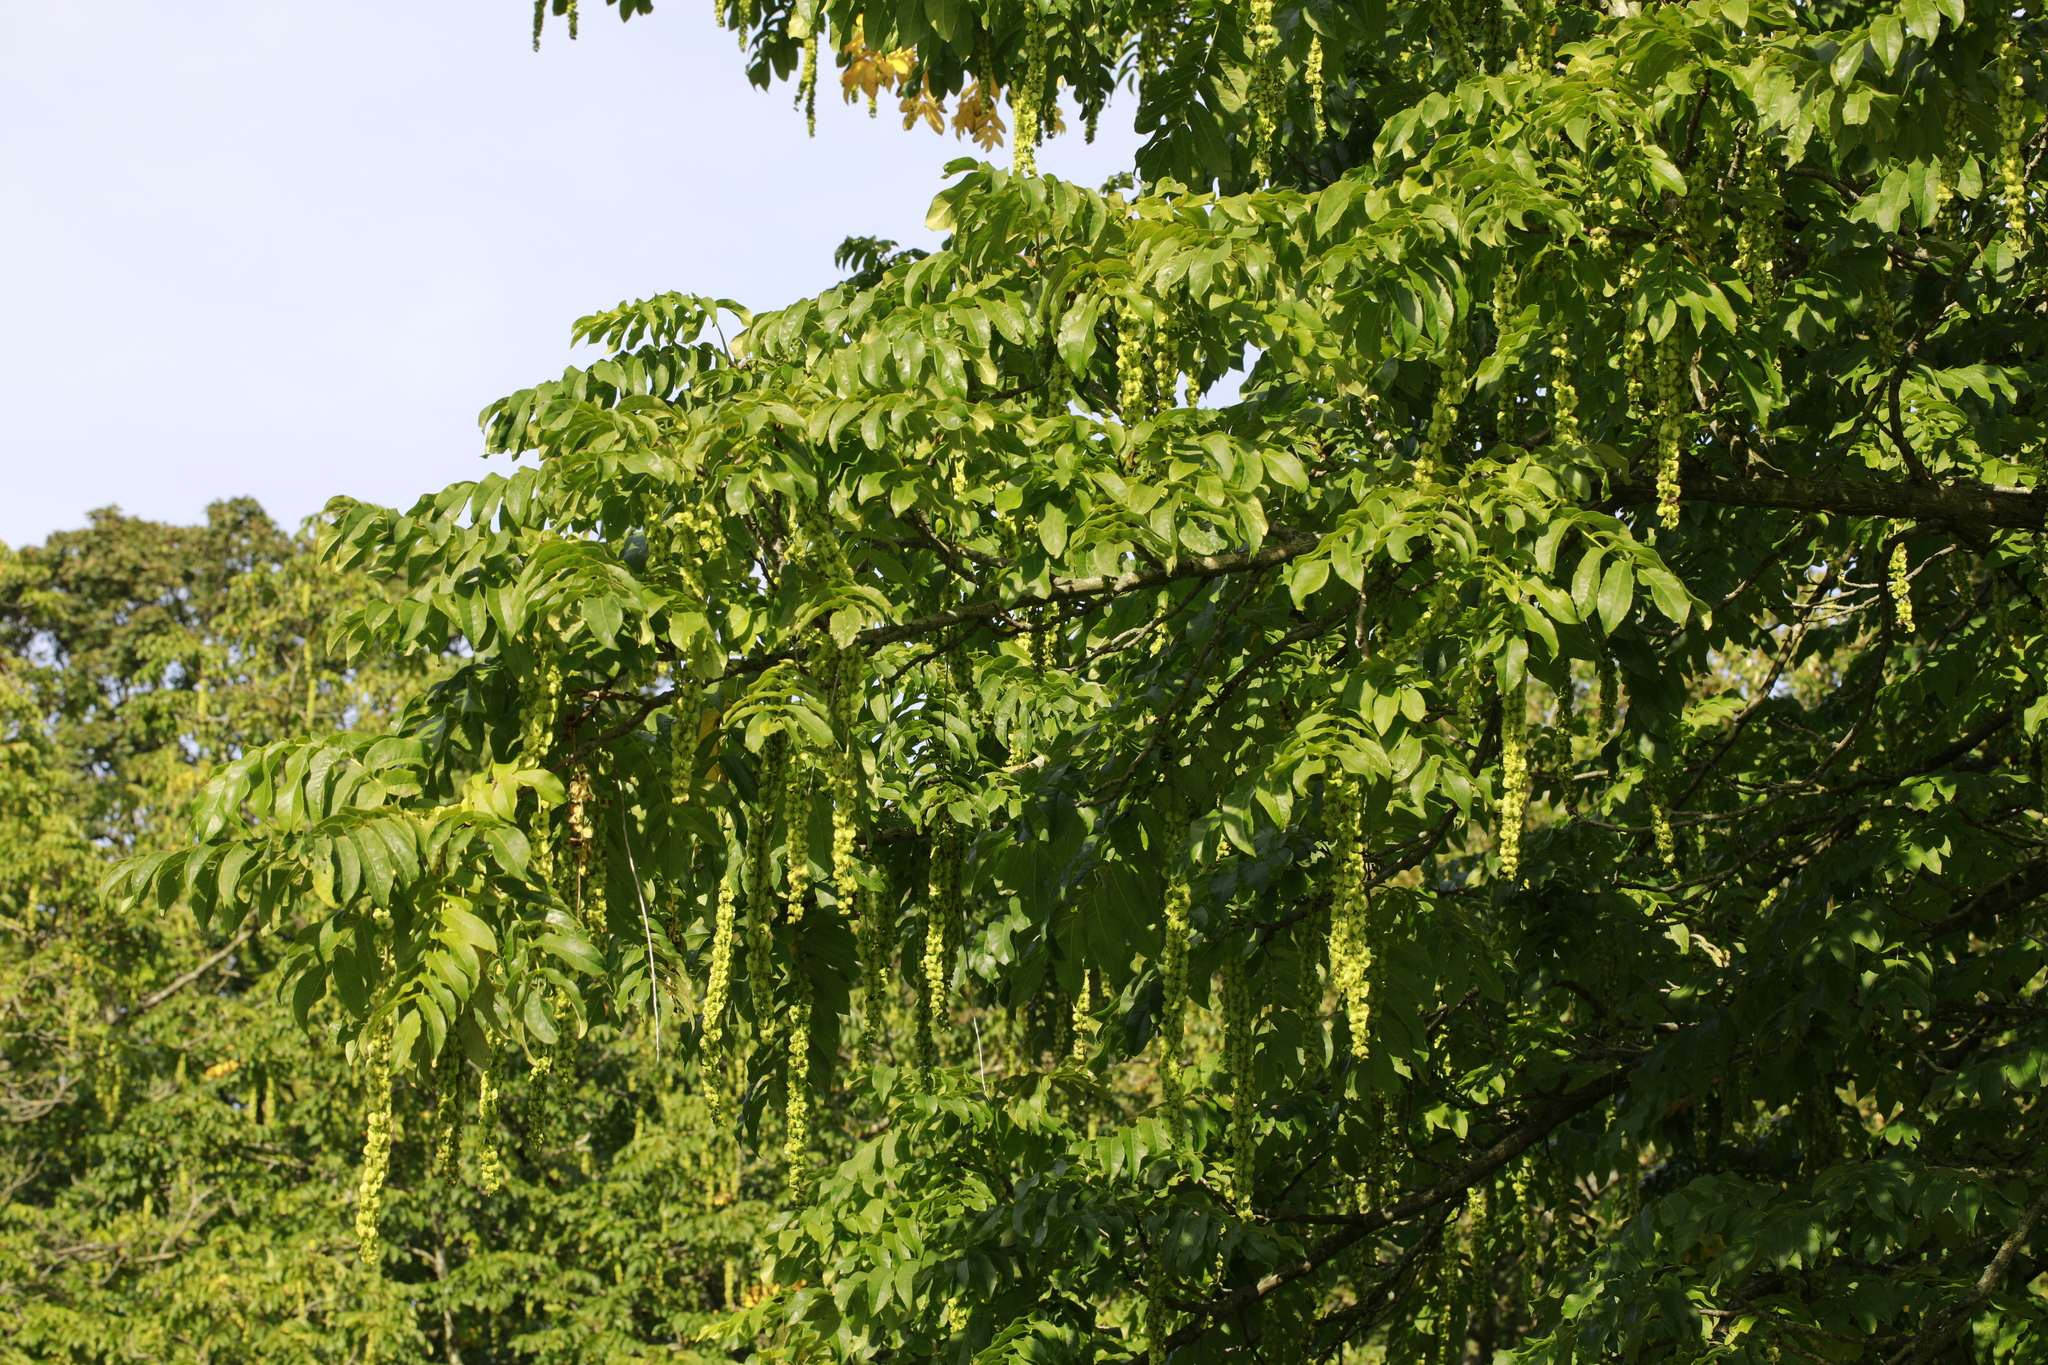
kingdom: Plantae
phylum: Tracheophyta
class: Magnoliopsida
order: Fagales
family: Juglandaceae
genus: Pterocarya
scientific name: Pterocarya fraxinifolia
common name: Caucasian wingnut
